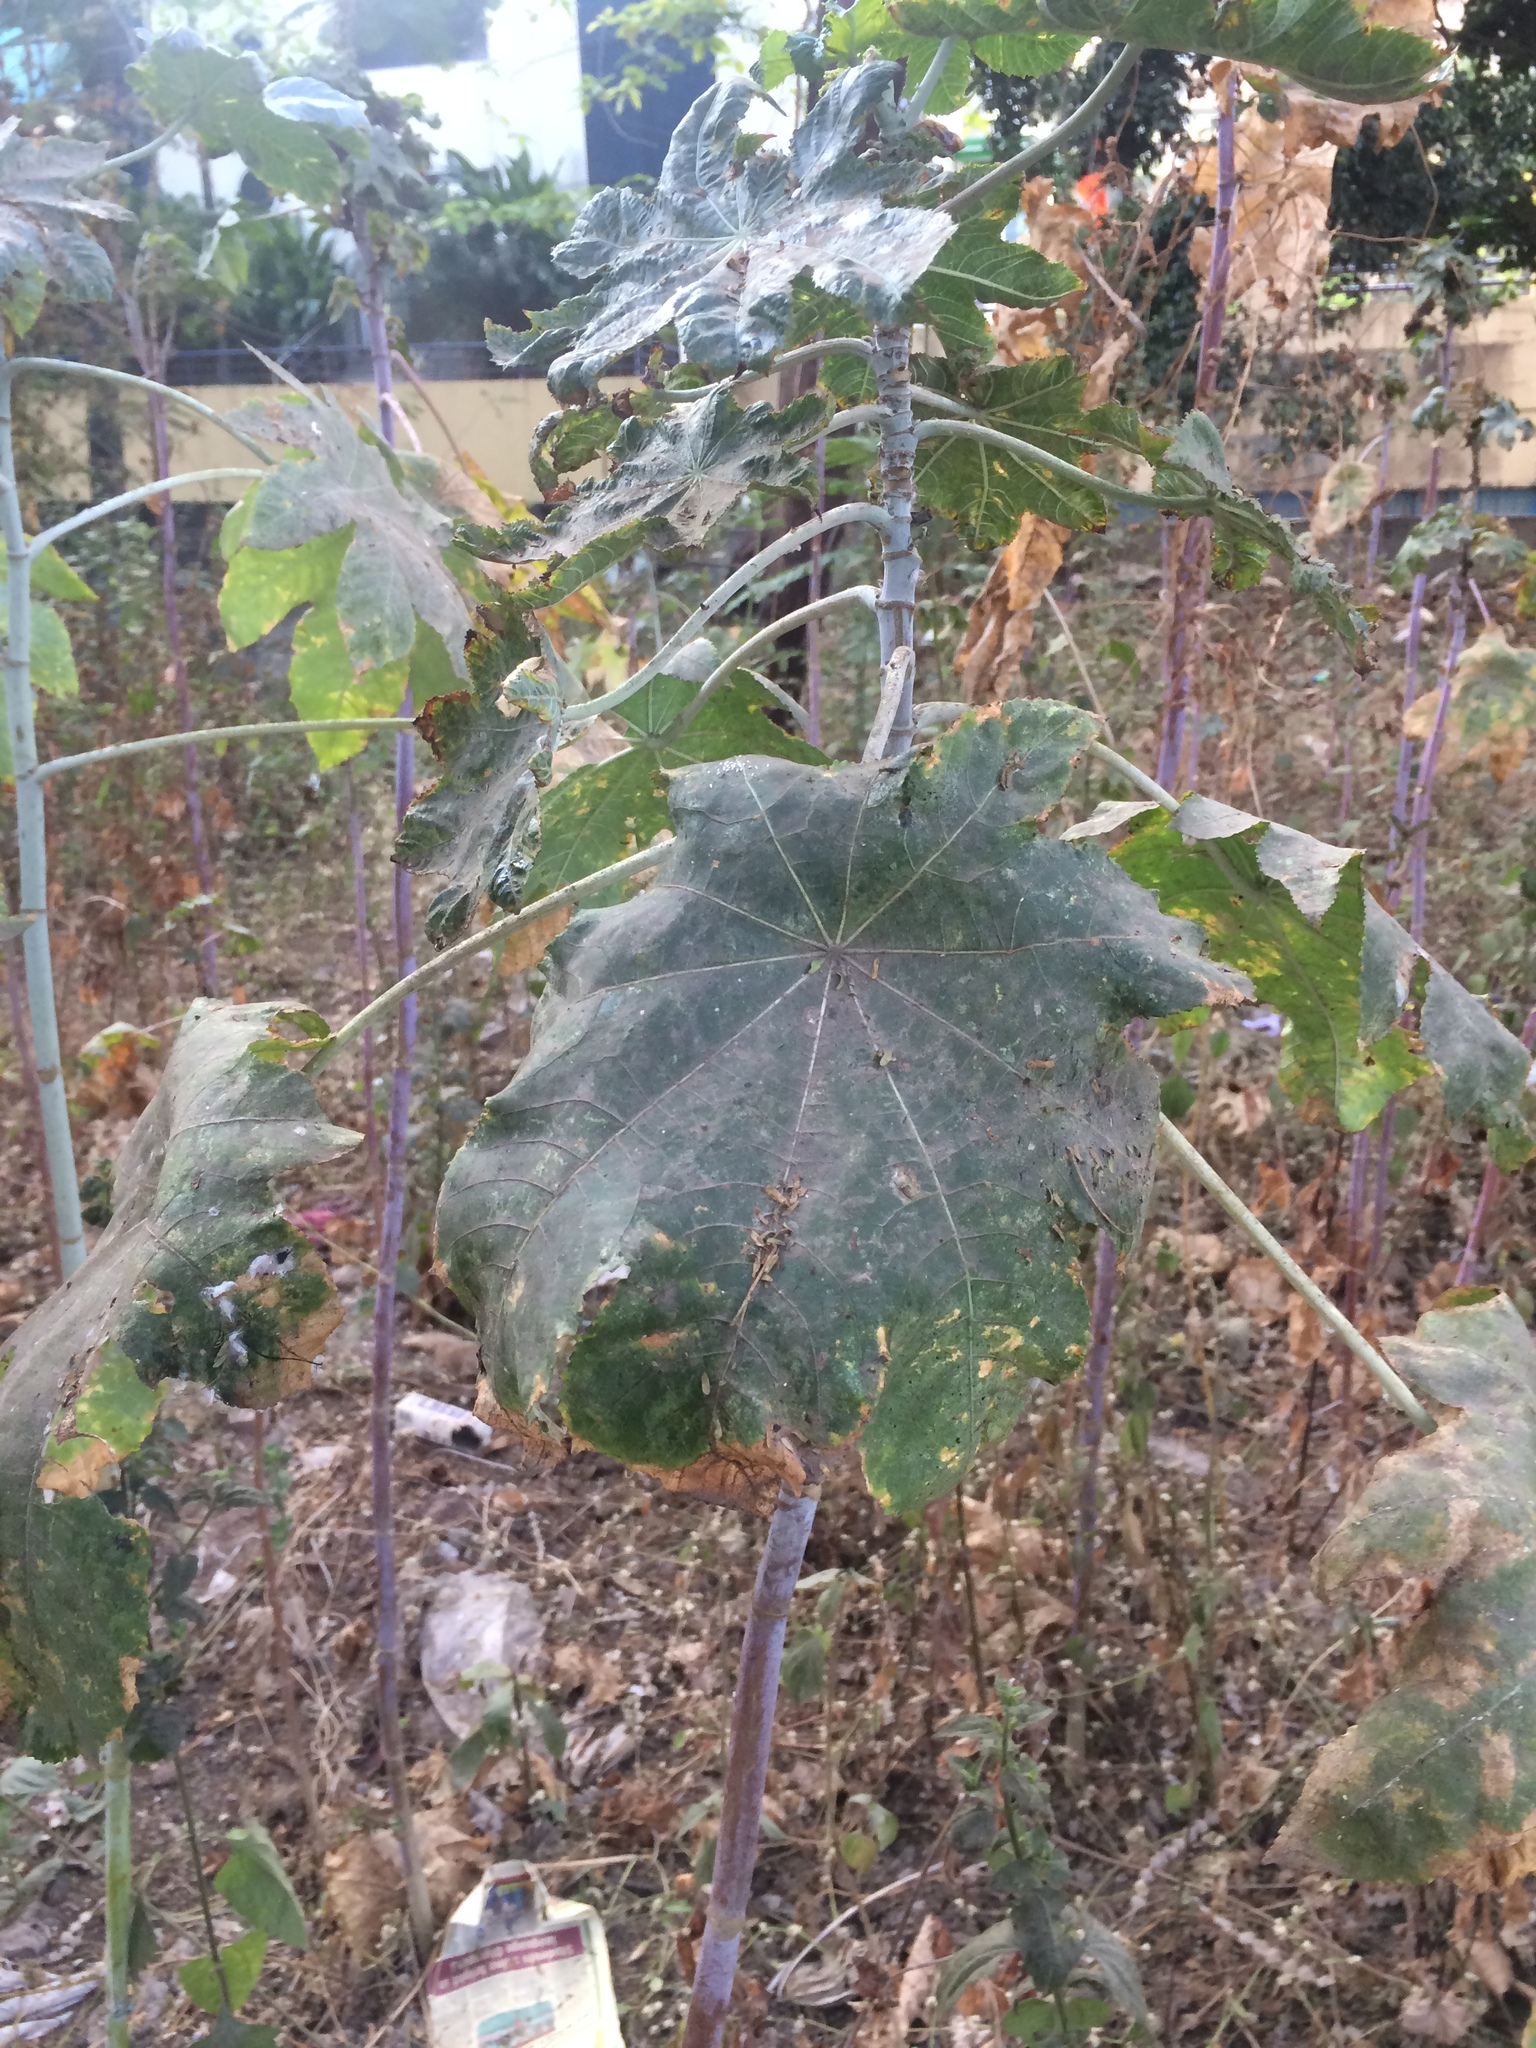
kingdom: Plantae
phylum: Tracheophyta
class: Magnoliopsida
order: Malpighiales
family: Euphorbiaceae
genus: Ricinus
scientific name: Ricinus communis
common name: Castor-oil-plant
